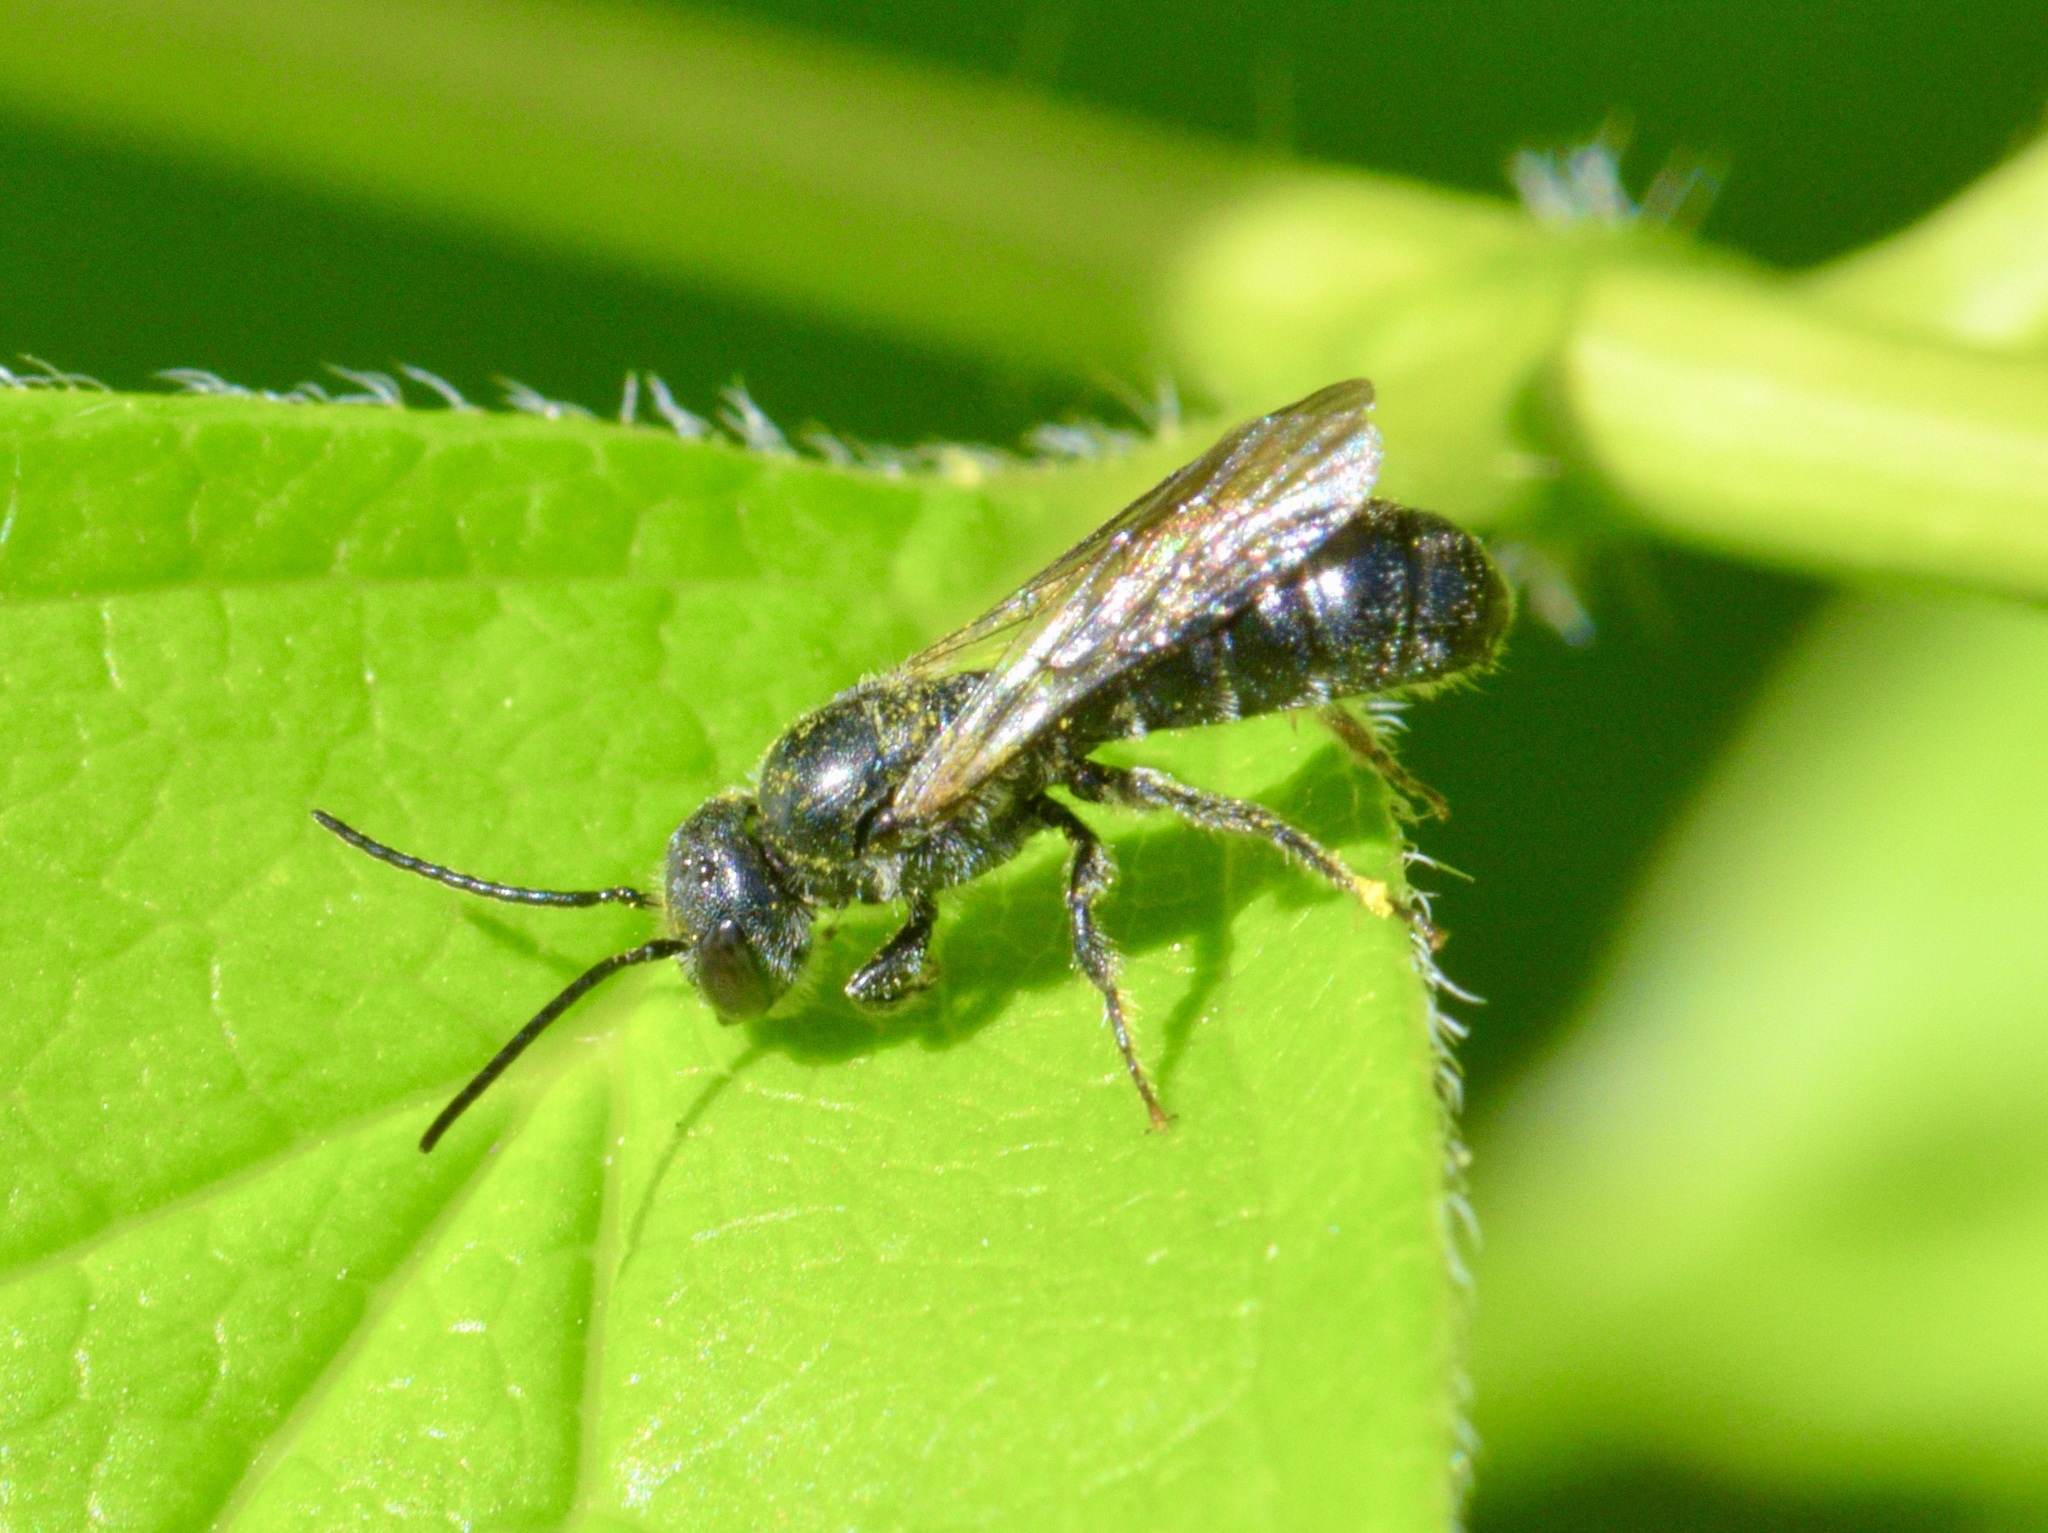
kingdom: Animalia
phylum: Arthropoda
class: Insecta
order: Hymenoptera
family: Megachilidae
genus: Chelostoma
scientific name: Chelostoma philadelphi
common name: Mock-orange scissor bee
